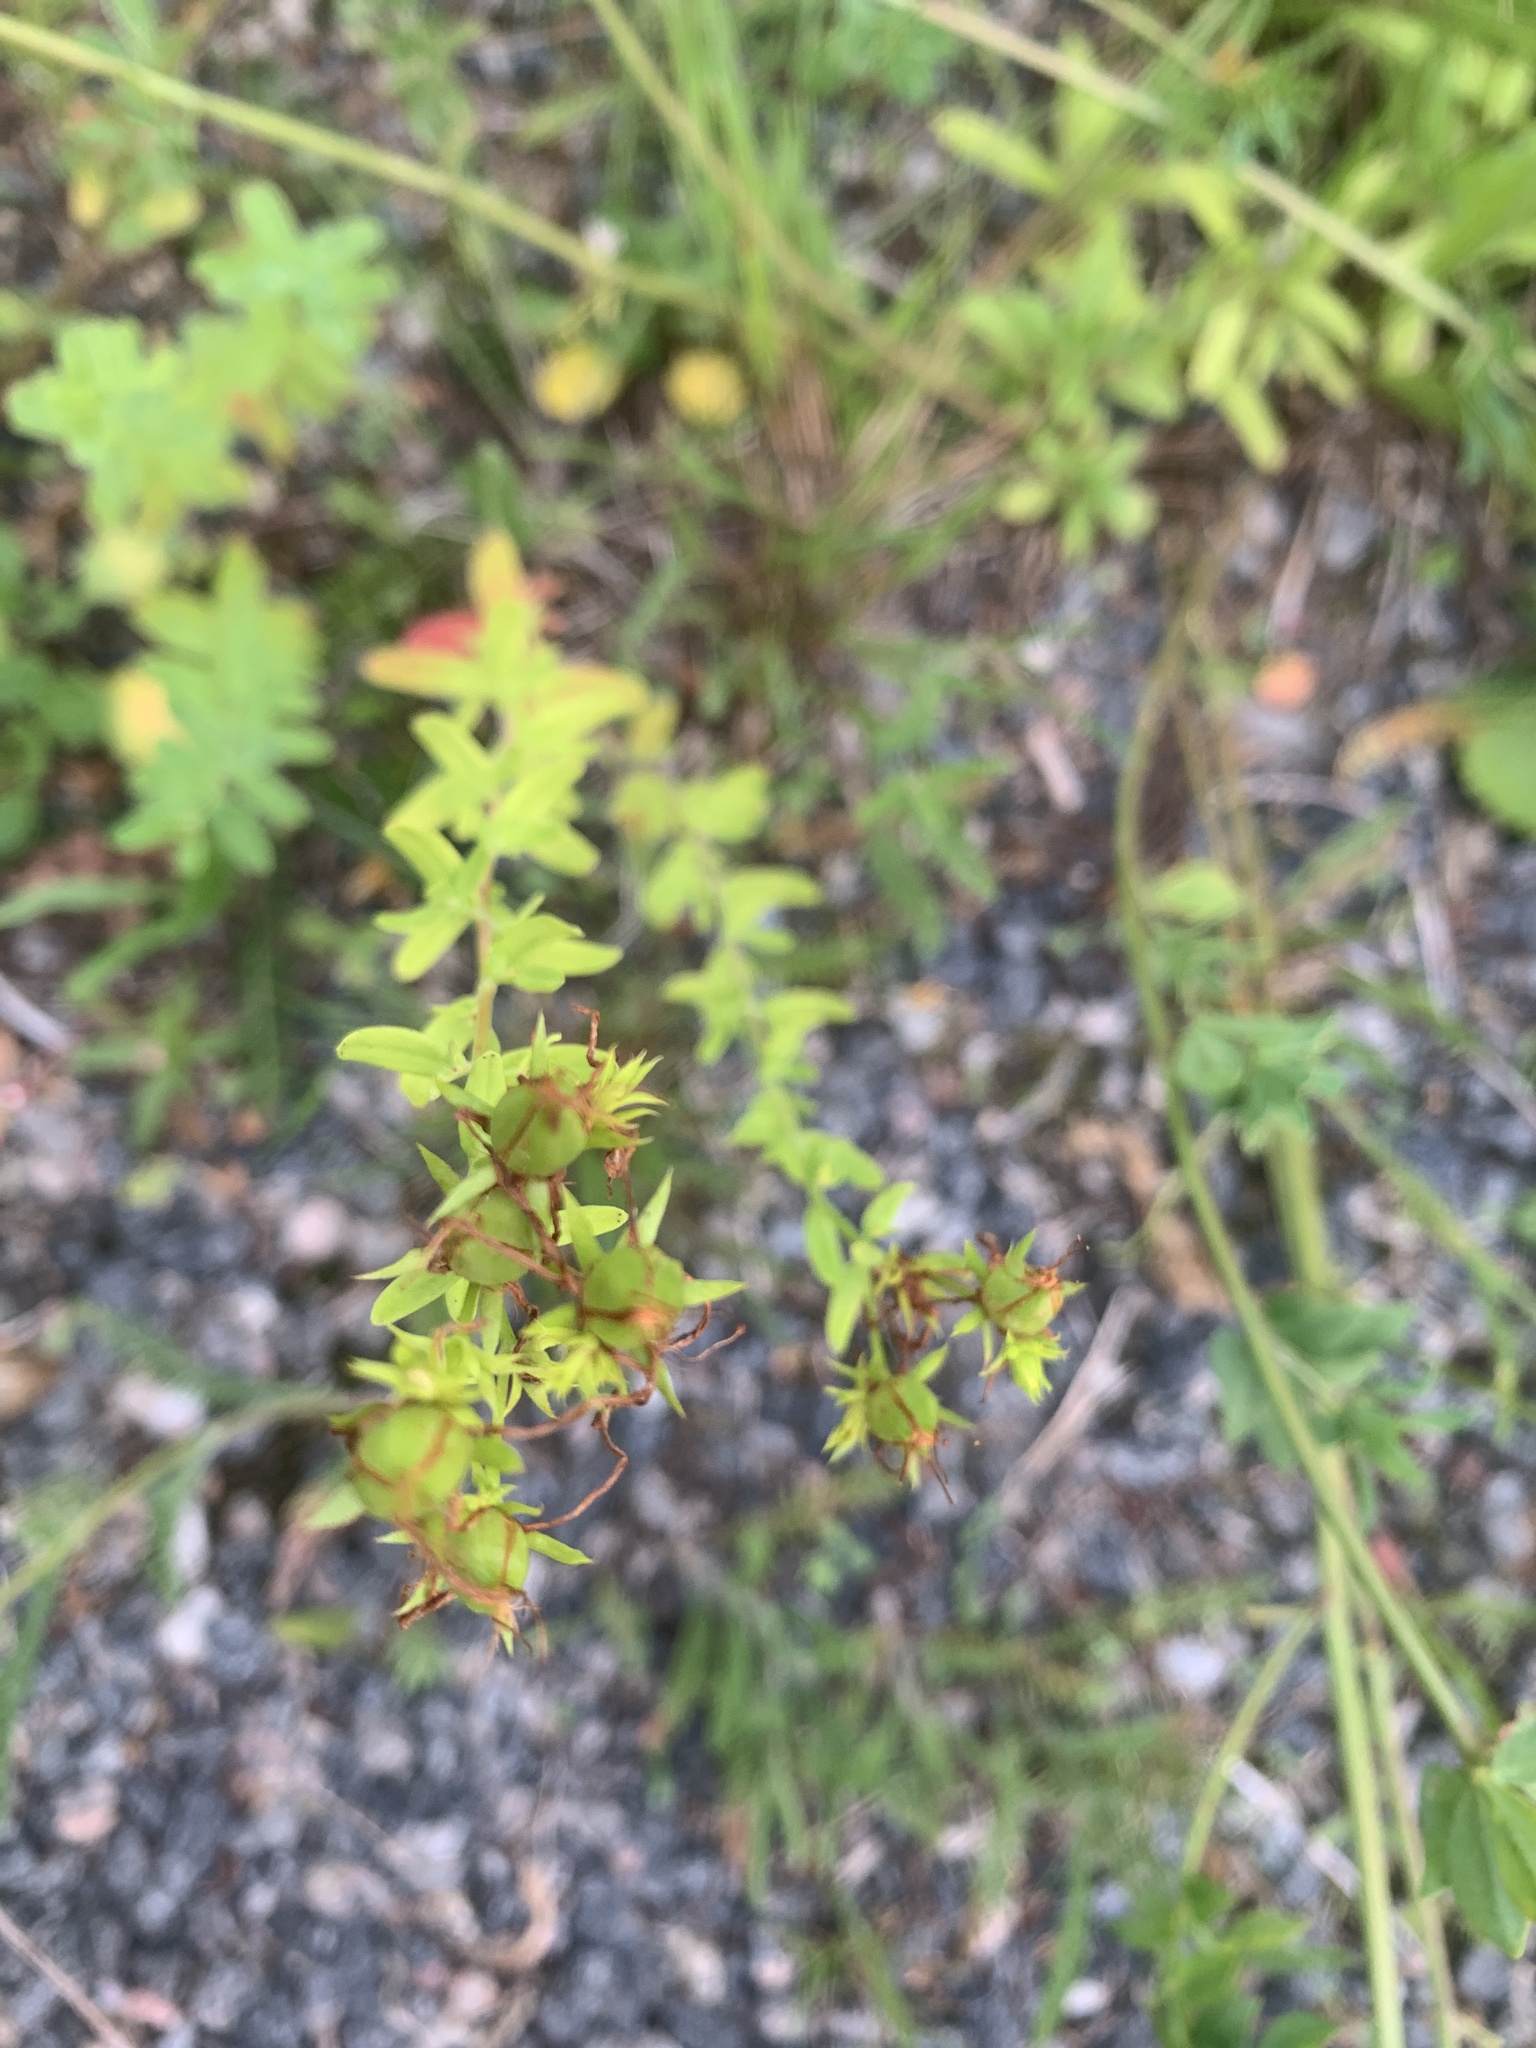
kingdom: Plantae
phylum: Tracheophyta
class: Magnoliopsida
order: Malpighiales
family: Hypericaceae
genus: Hypericum
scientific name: Hypericum perforatum
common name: Common st. johnswort
